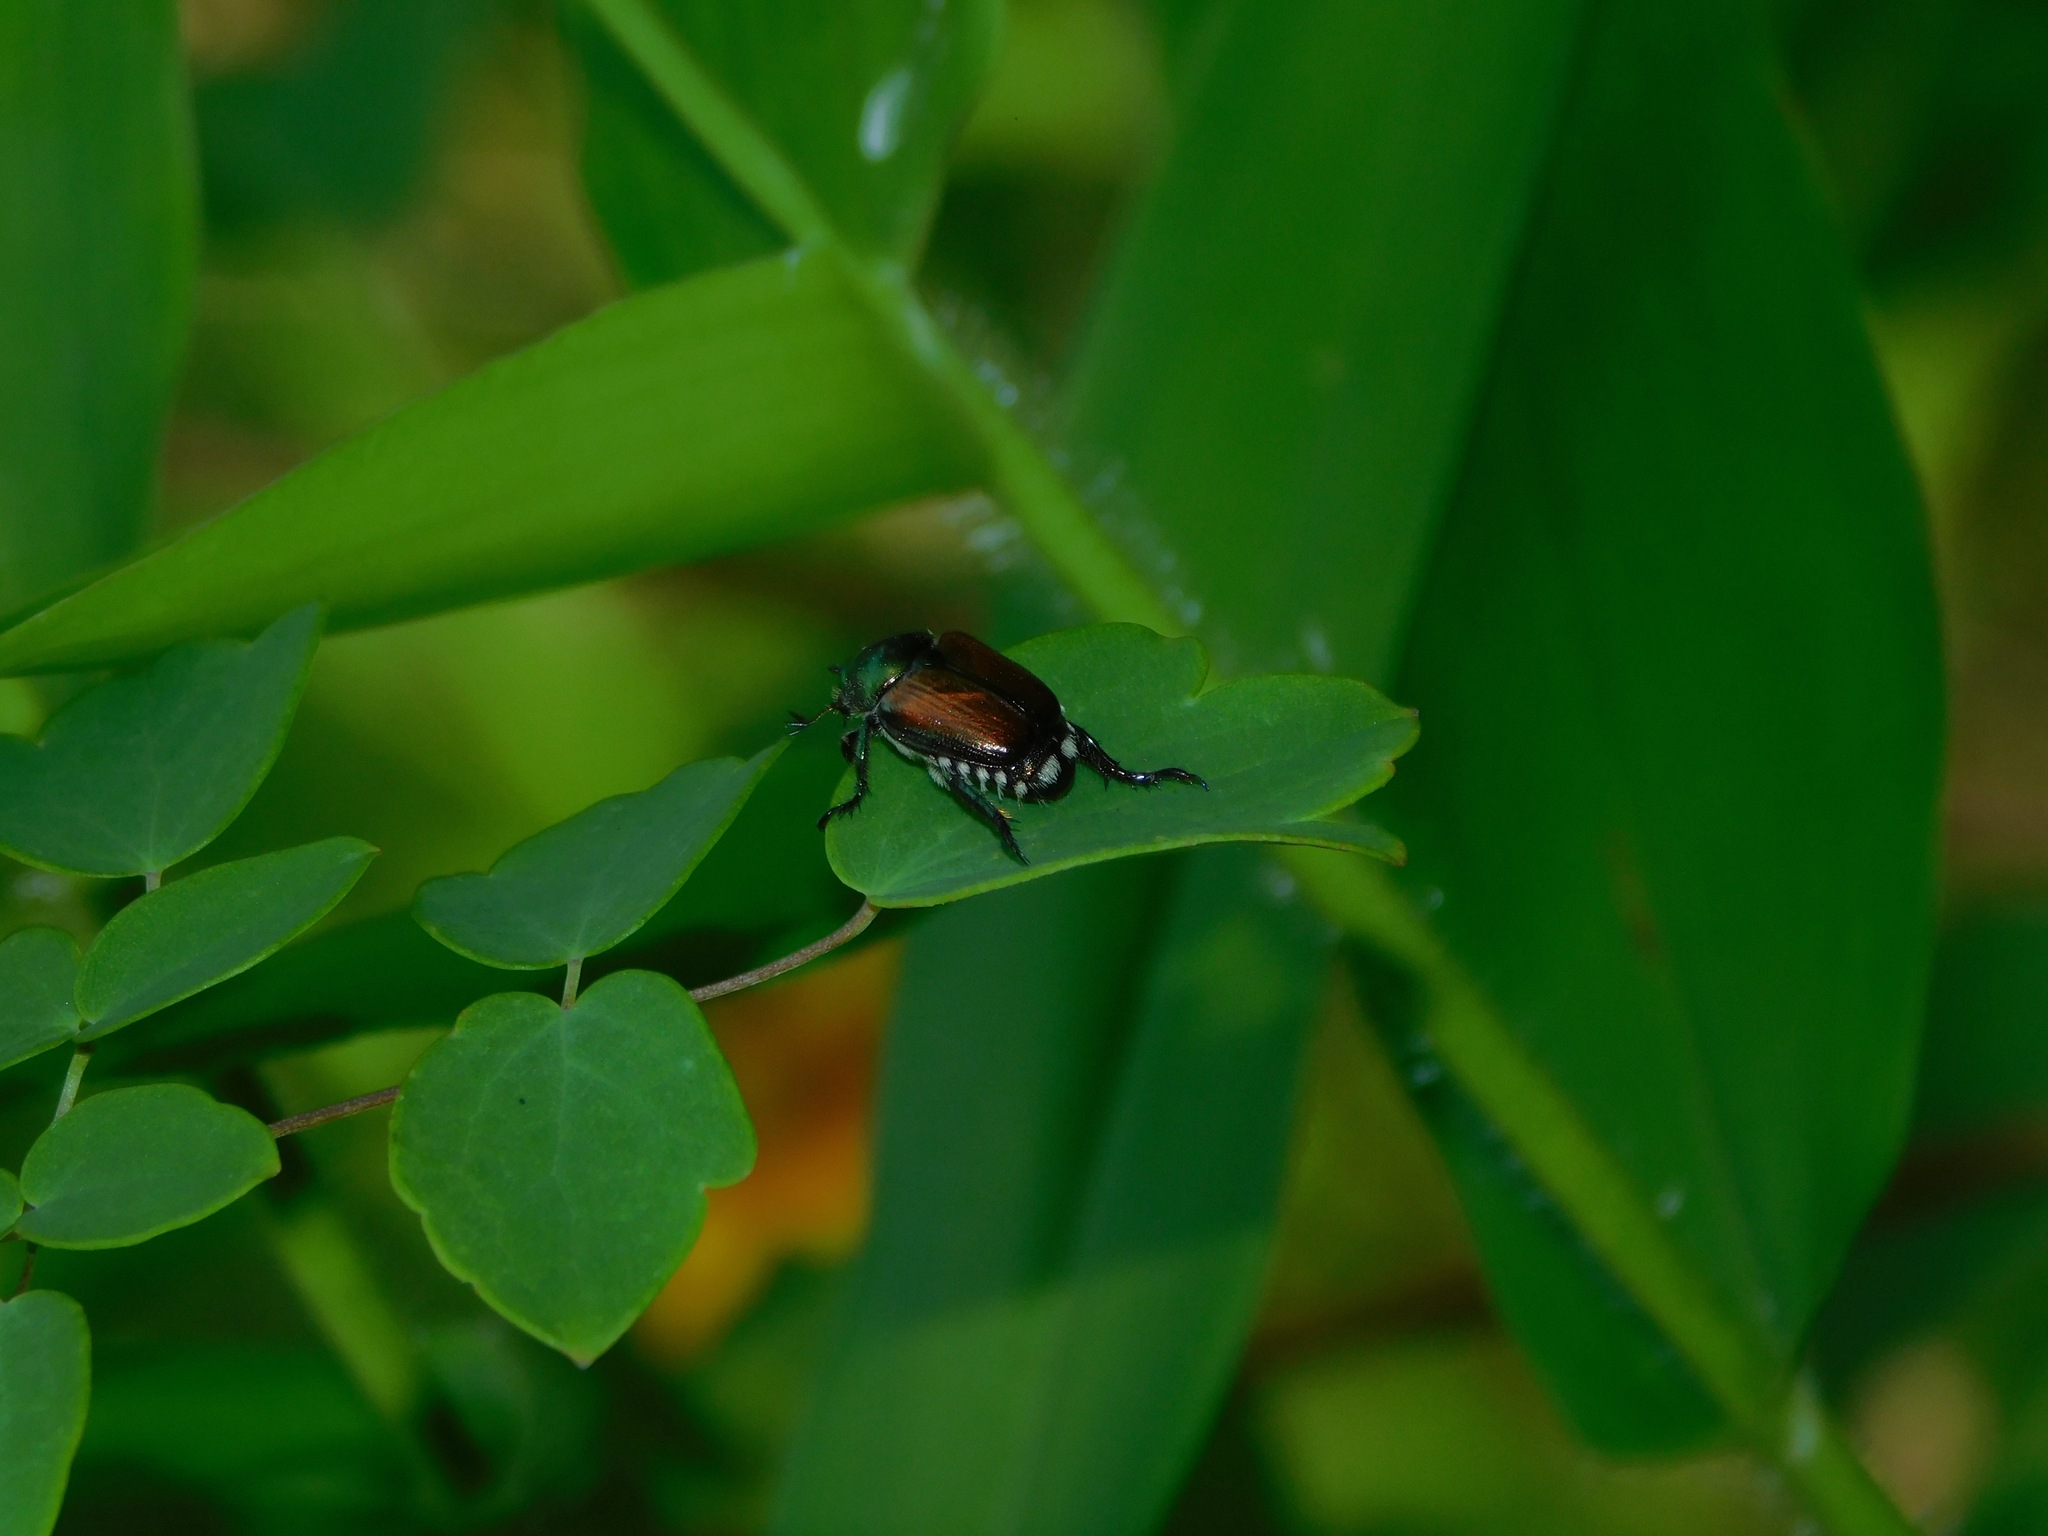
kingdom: Animalia
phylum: Arthropoda
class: Insecta
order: Coleoptera
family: Scarabaeidae
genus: Popillia
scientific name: Popillia japonica
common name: Japanese beetle
